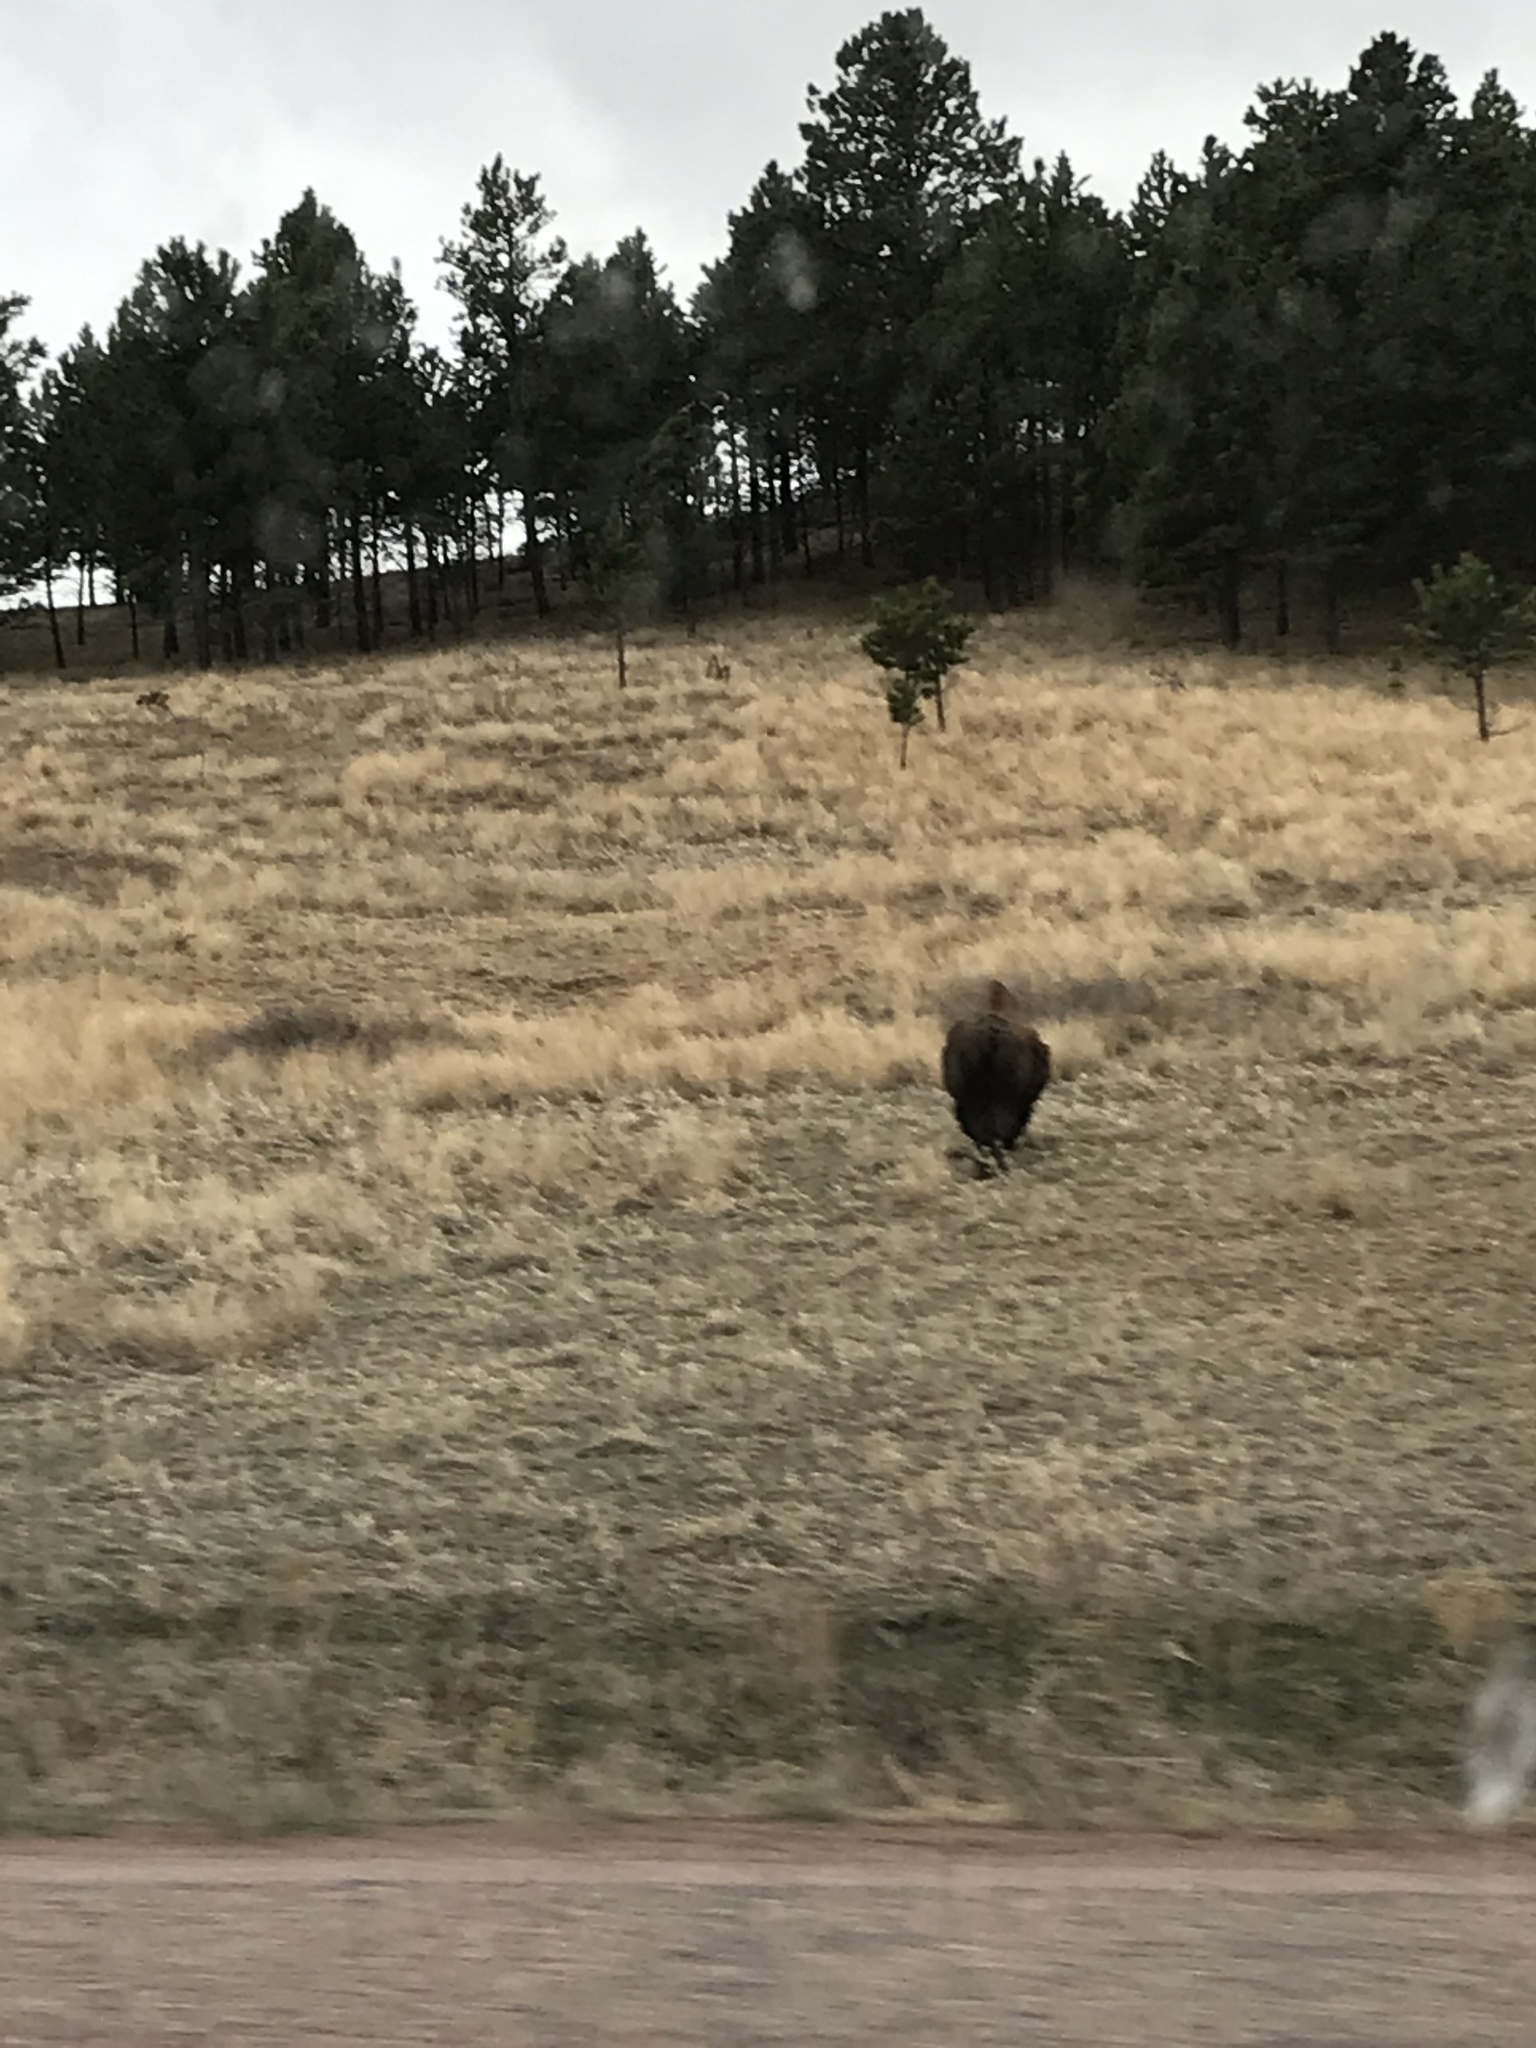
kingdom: Animalia
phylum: Chordata
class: Mammalia
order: Artiodactyla
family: Bovidae
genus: Bison
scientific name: Bison bison
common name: American bison
